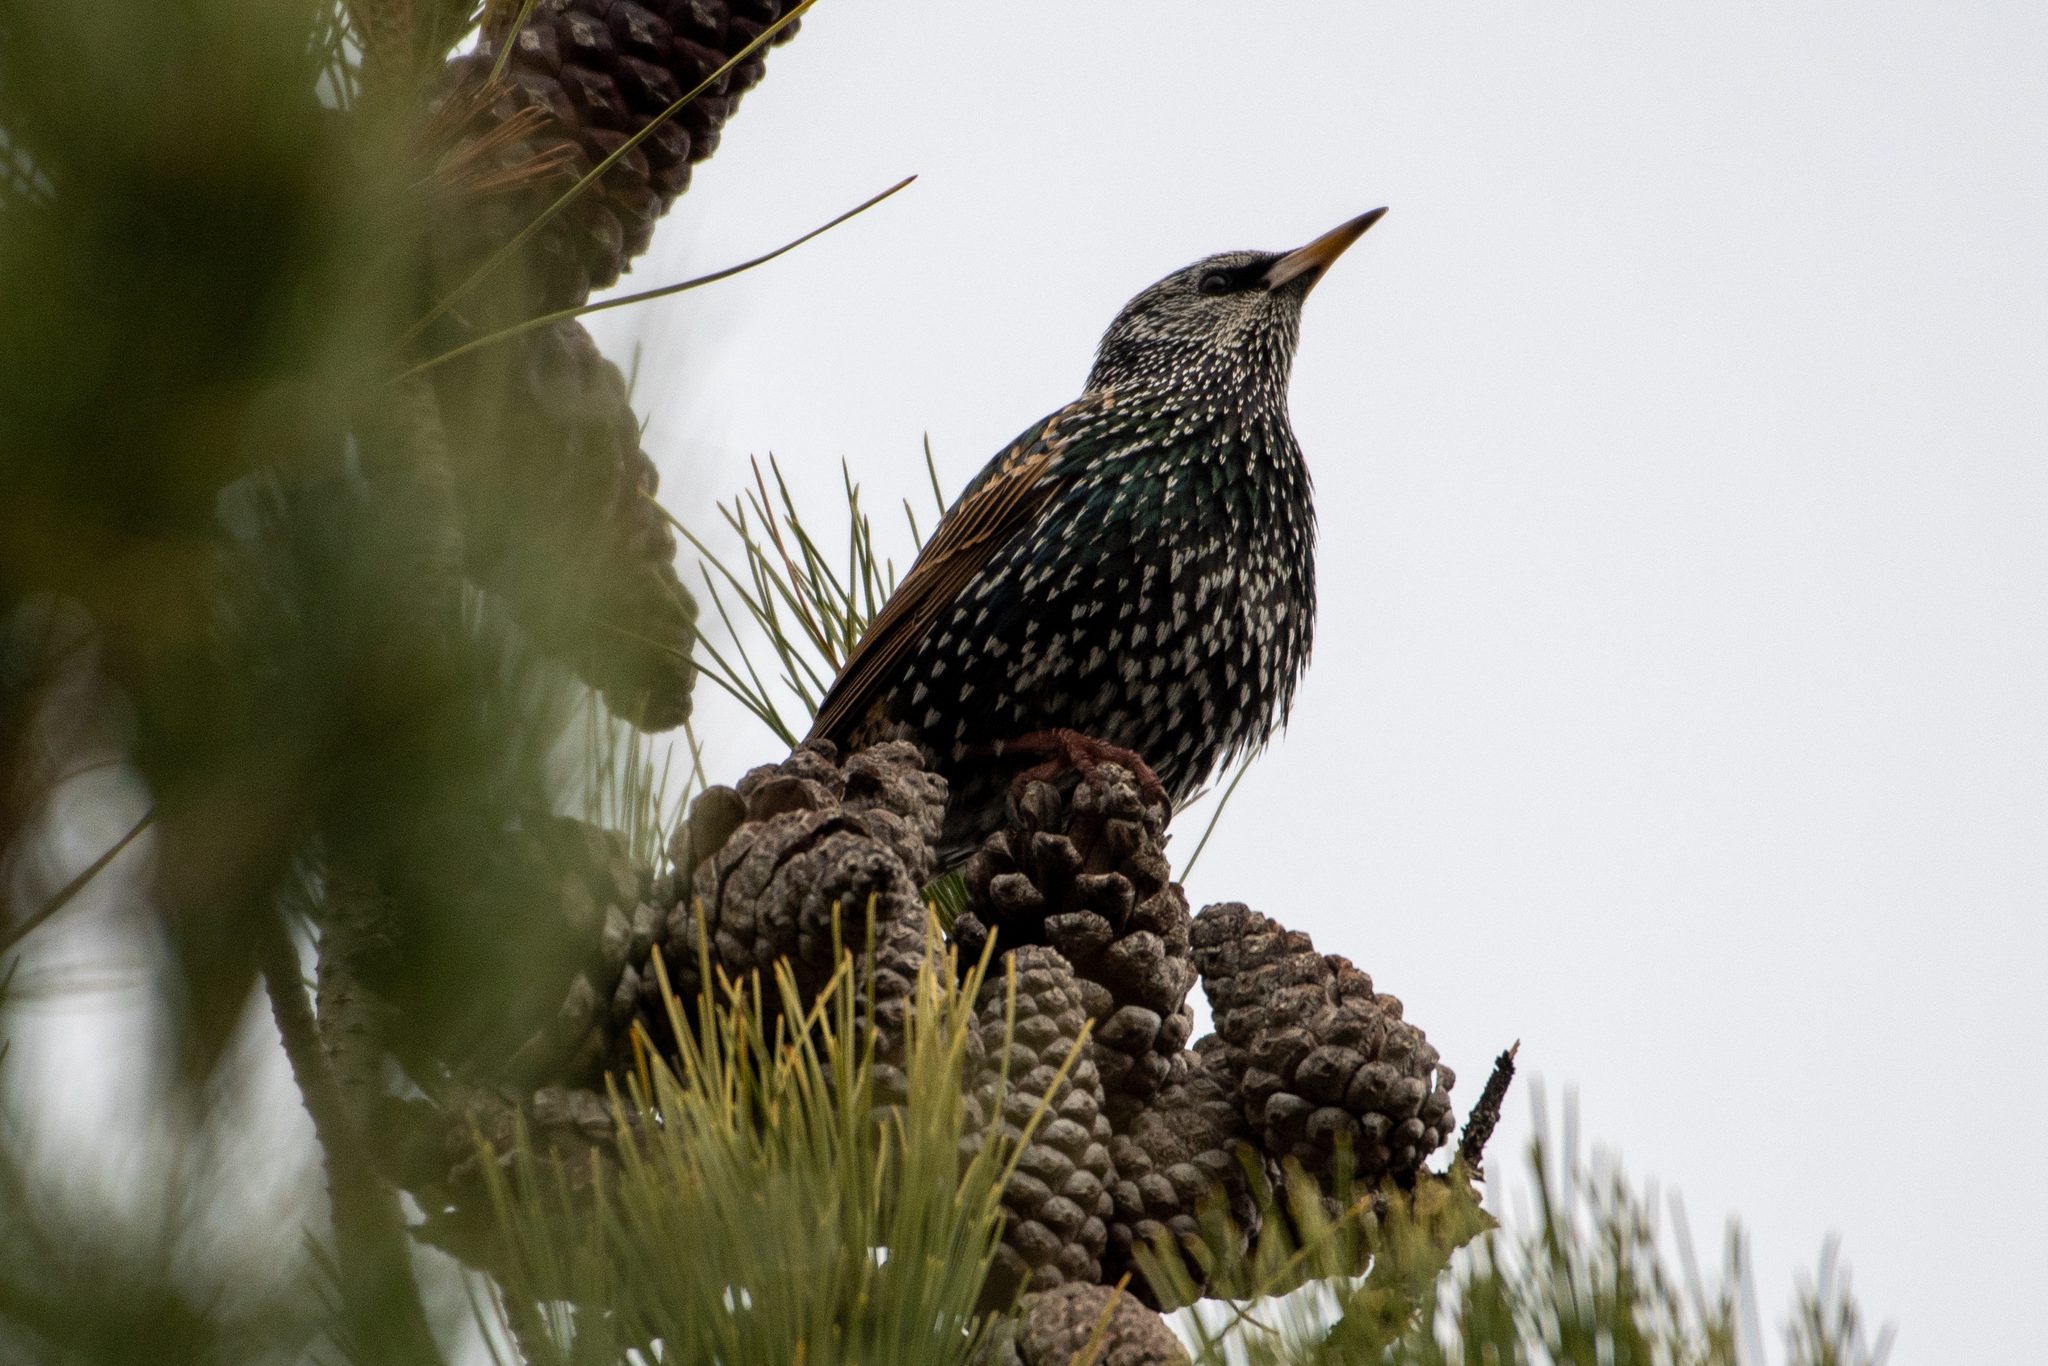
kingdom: Animalia
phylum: Chordata
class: Aves
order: Passeriformes
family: Sturnidae
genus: Sturnus
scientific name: Sturnus vulgaris
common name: Common starling
